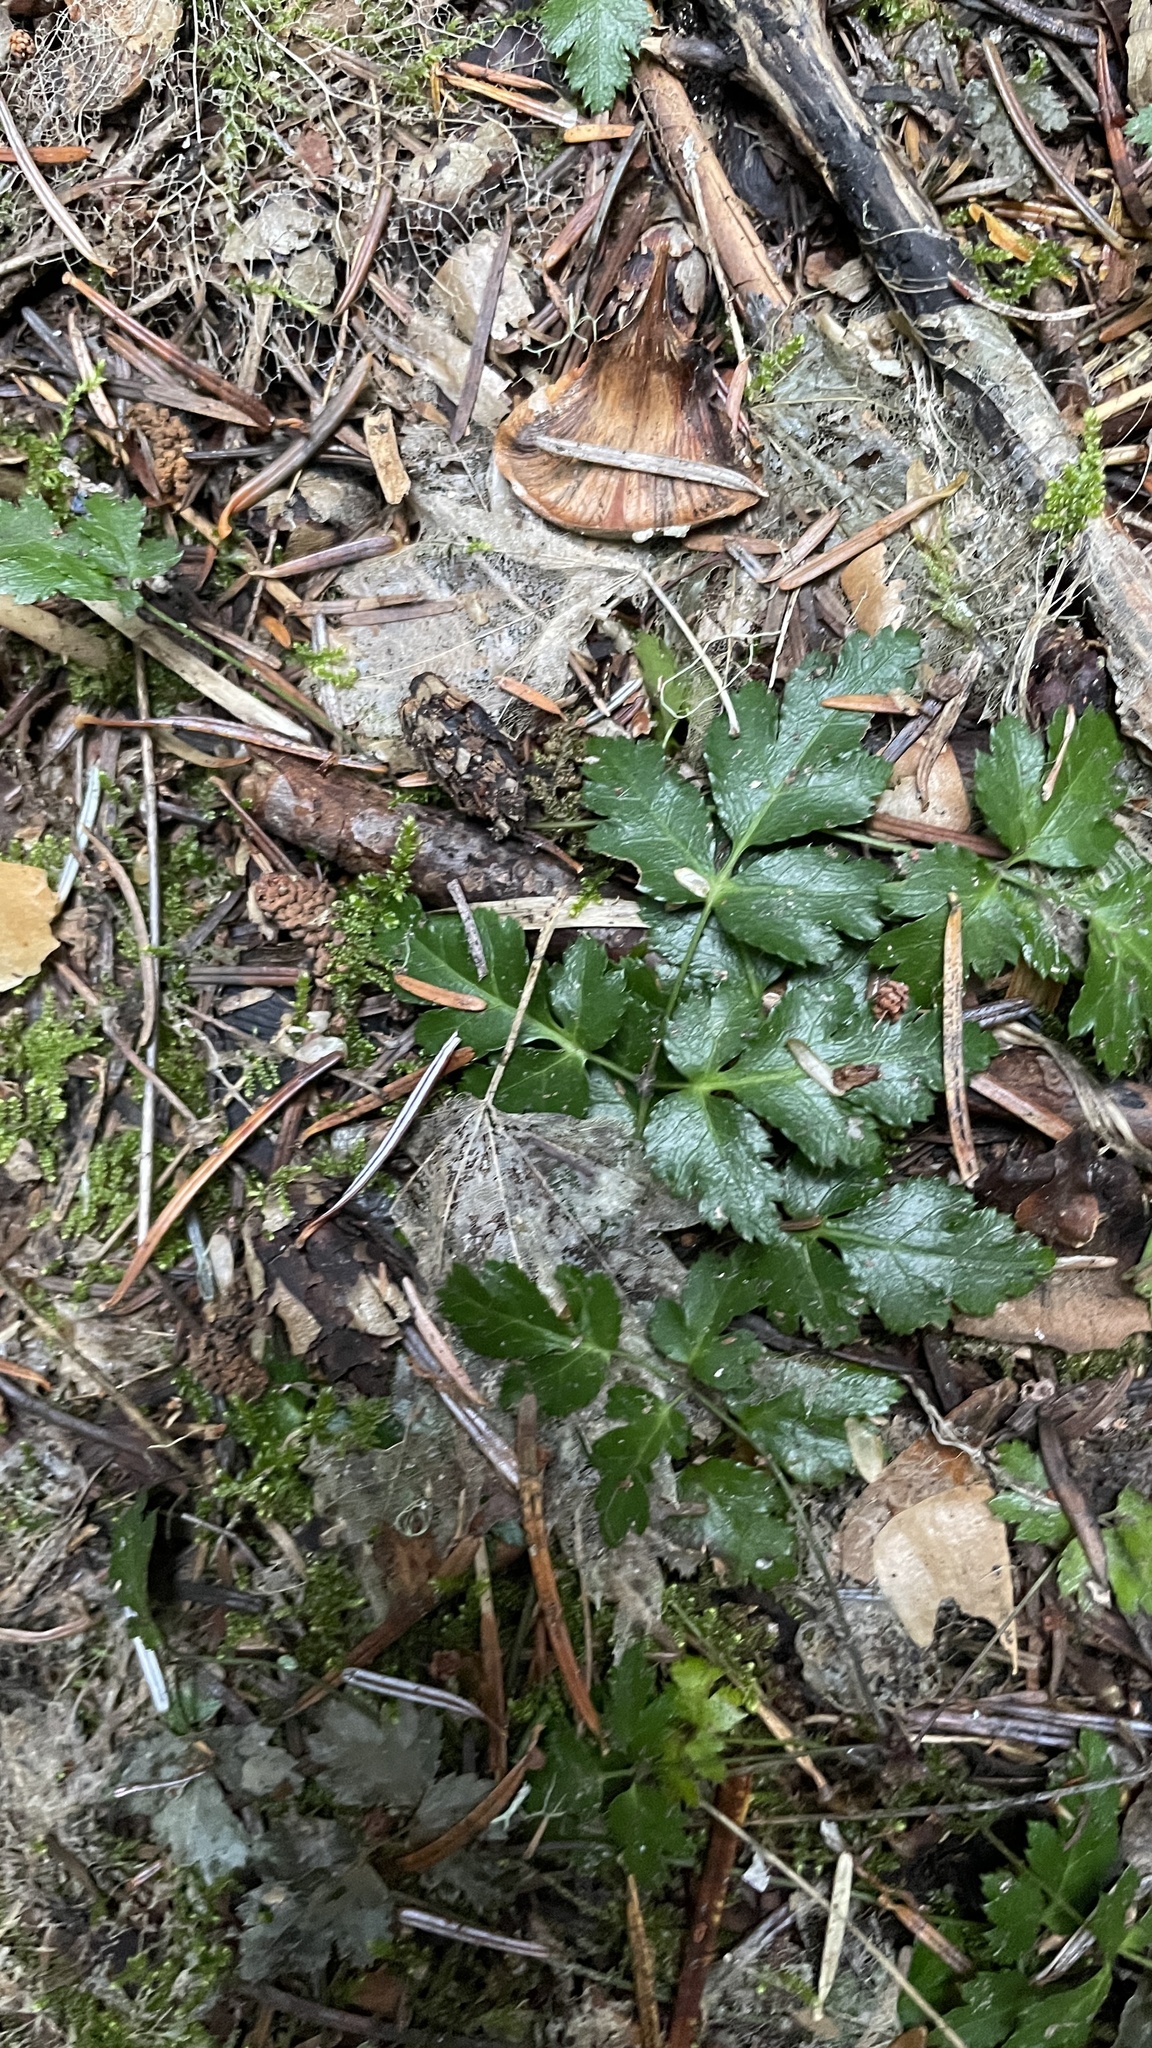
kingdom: Plantae
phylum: Tracheophyta
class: Magnoliopsida
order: Ranunculales
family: Ranunculaceae
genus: Coptis
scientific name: Coptis laciniata
